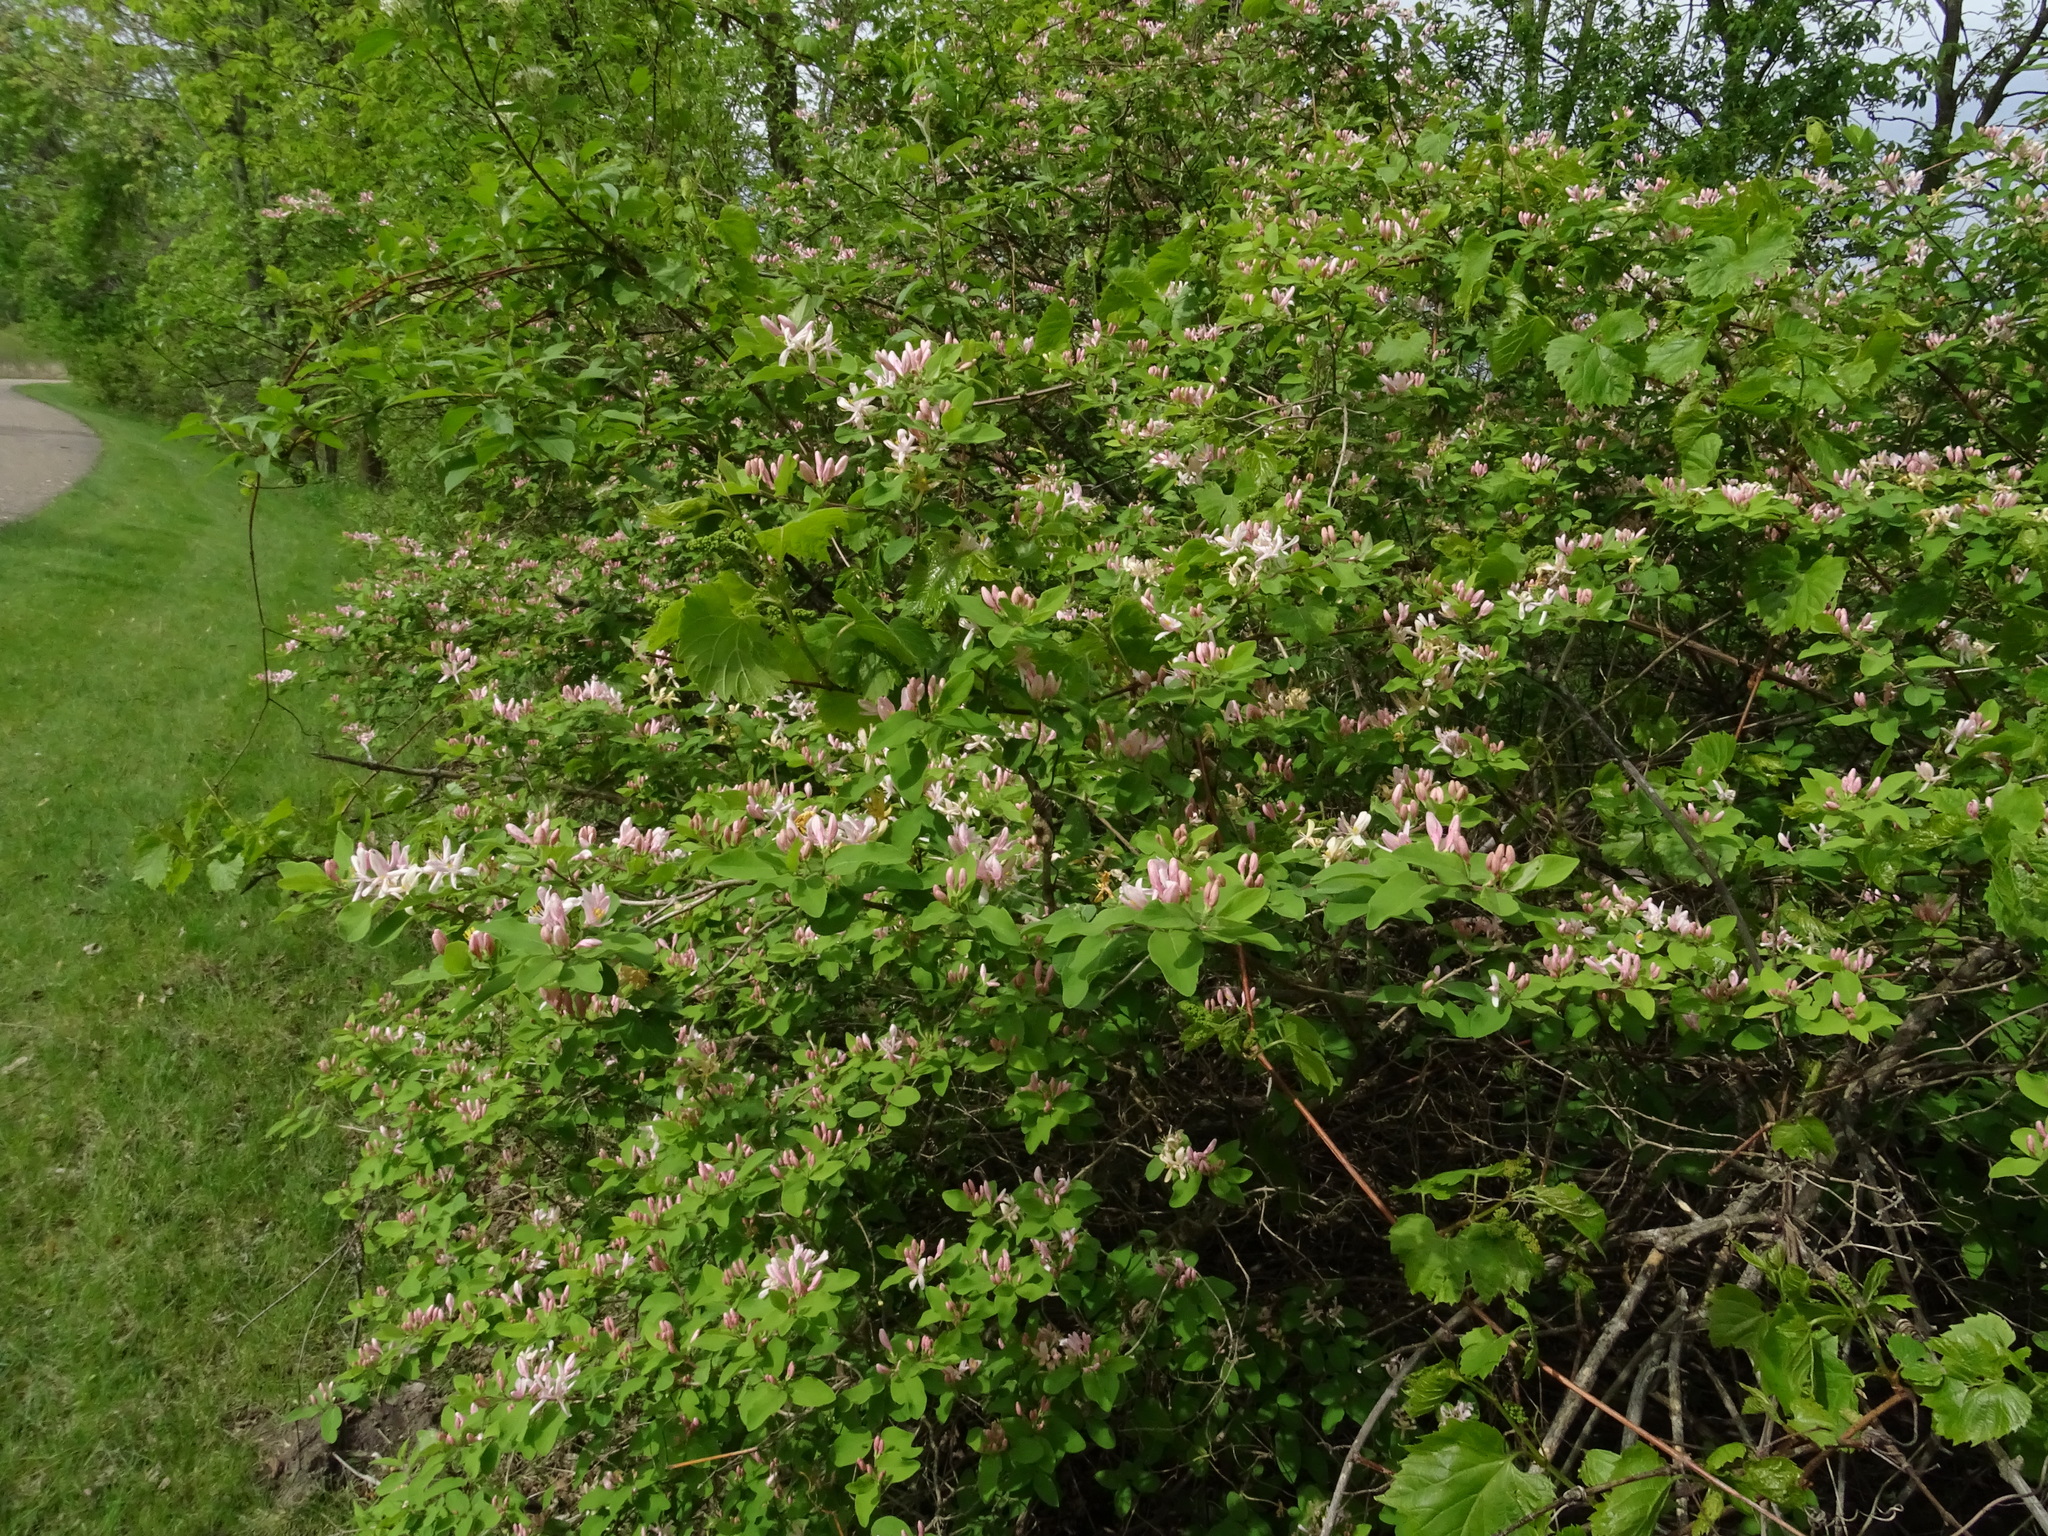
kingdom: Plantae
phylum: Tracheophyta
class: Magnoliopsida
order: Dipsacales
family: Caprifoliaceae
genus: Lonicera
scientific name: Lonicera morrowii
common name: Morrow's honeysuckle
